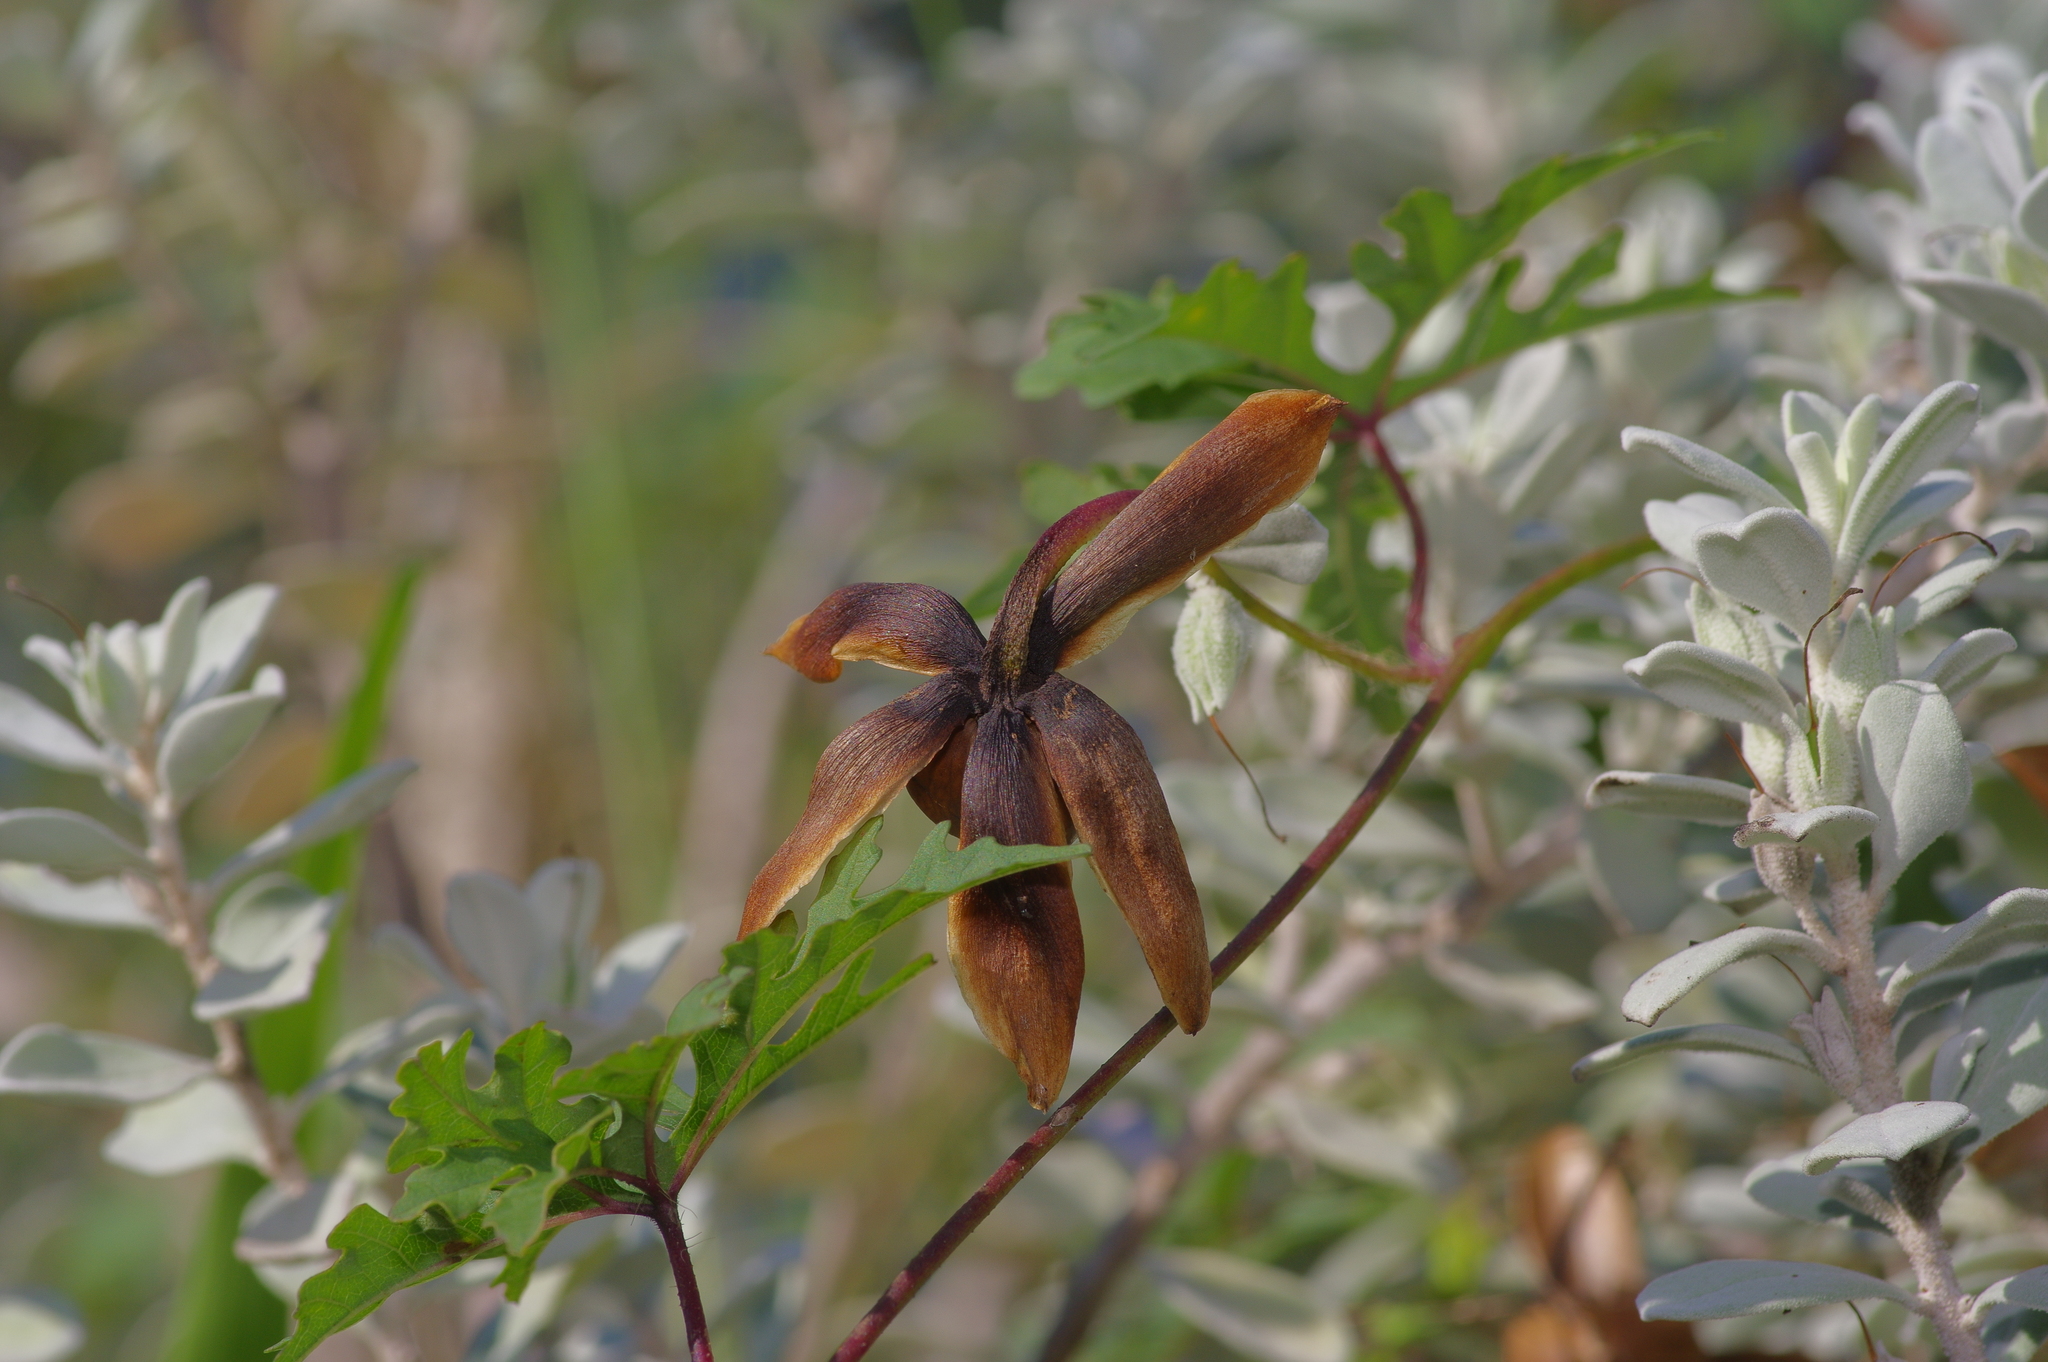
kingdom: Plantae
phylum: Tracheophyta
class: Magnoliopsida
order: Solanales
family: Convolvulaceae
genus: Distimake
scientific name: Distimake dissectus
